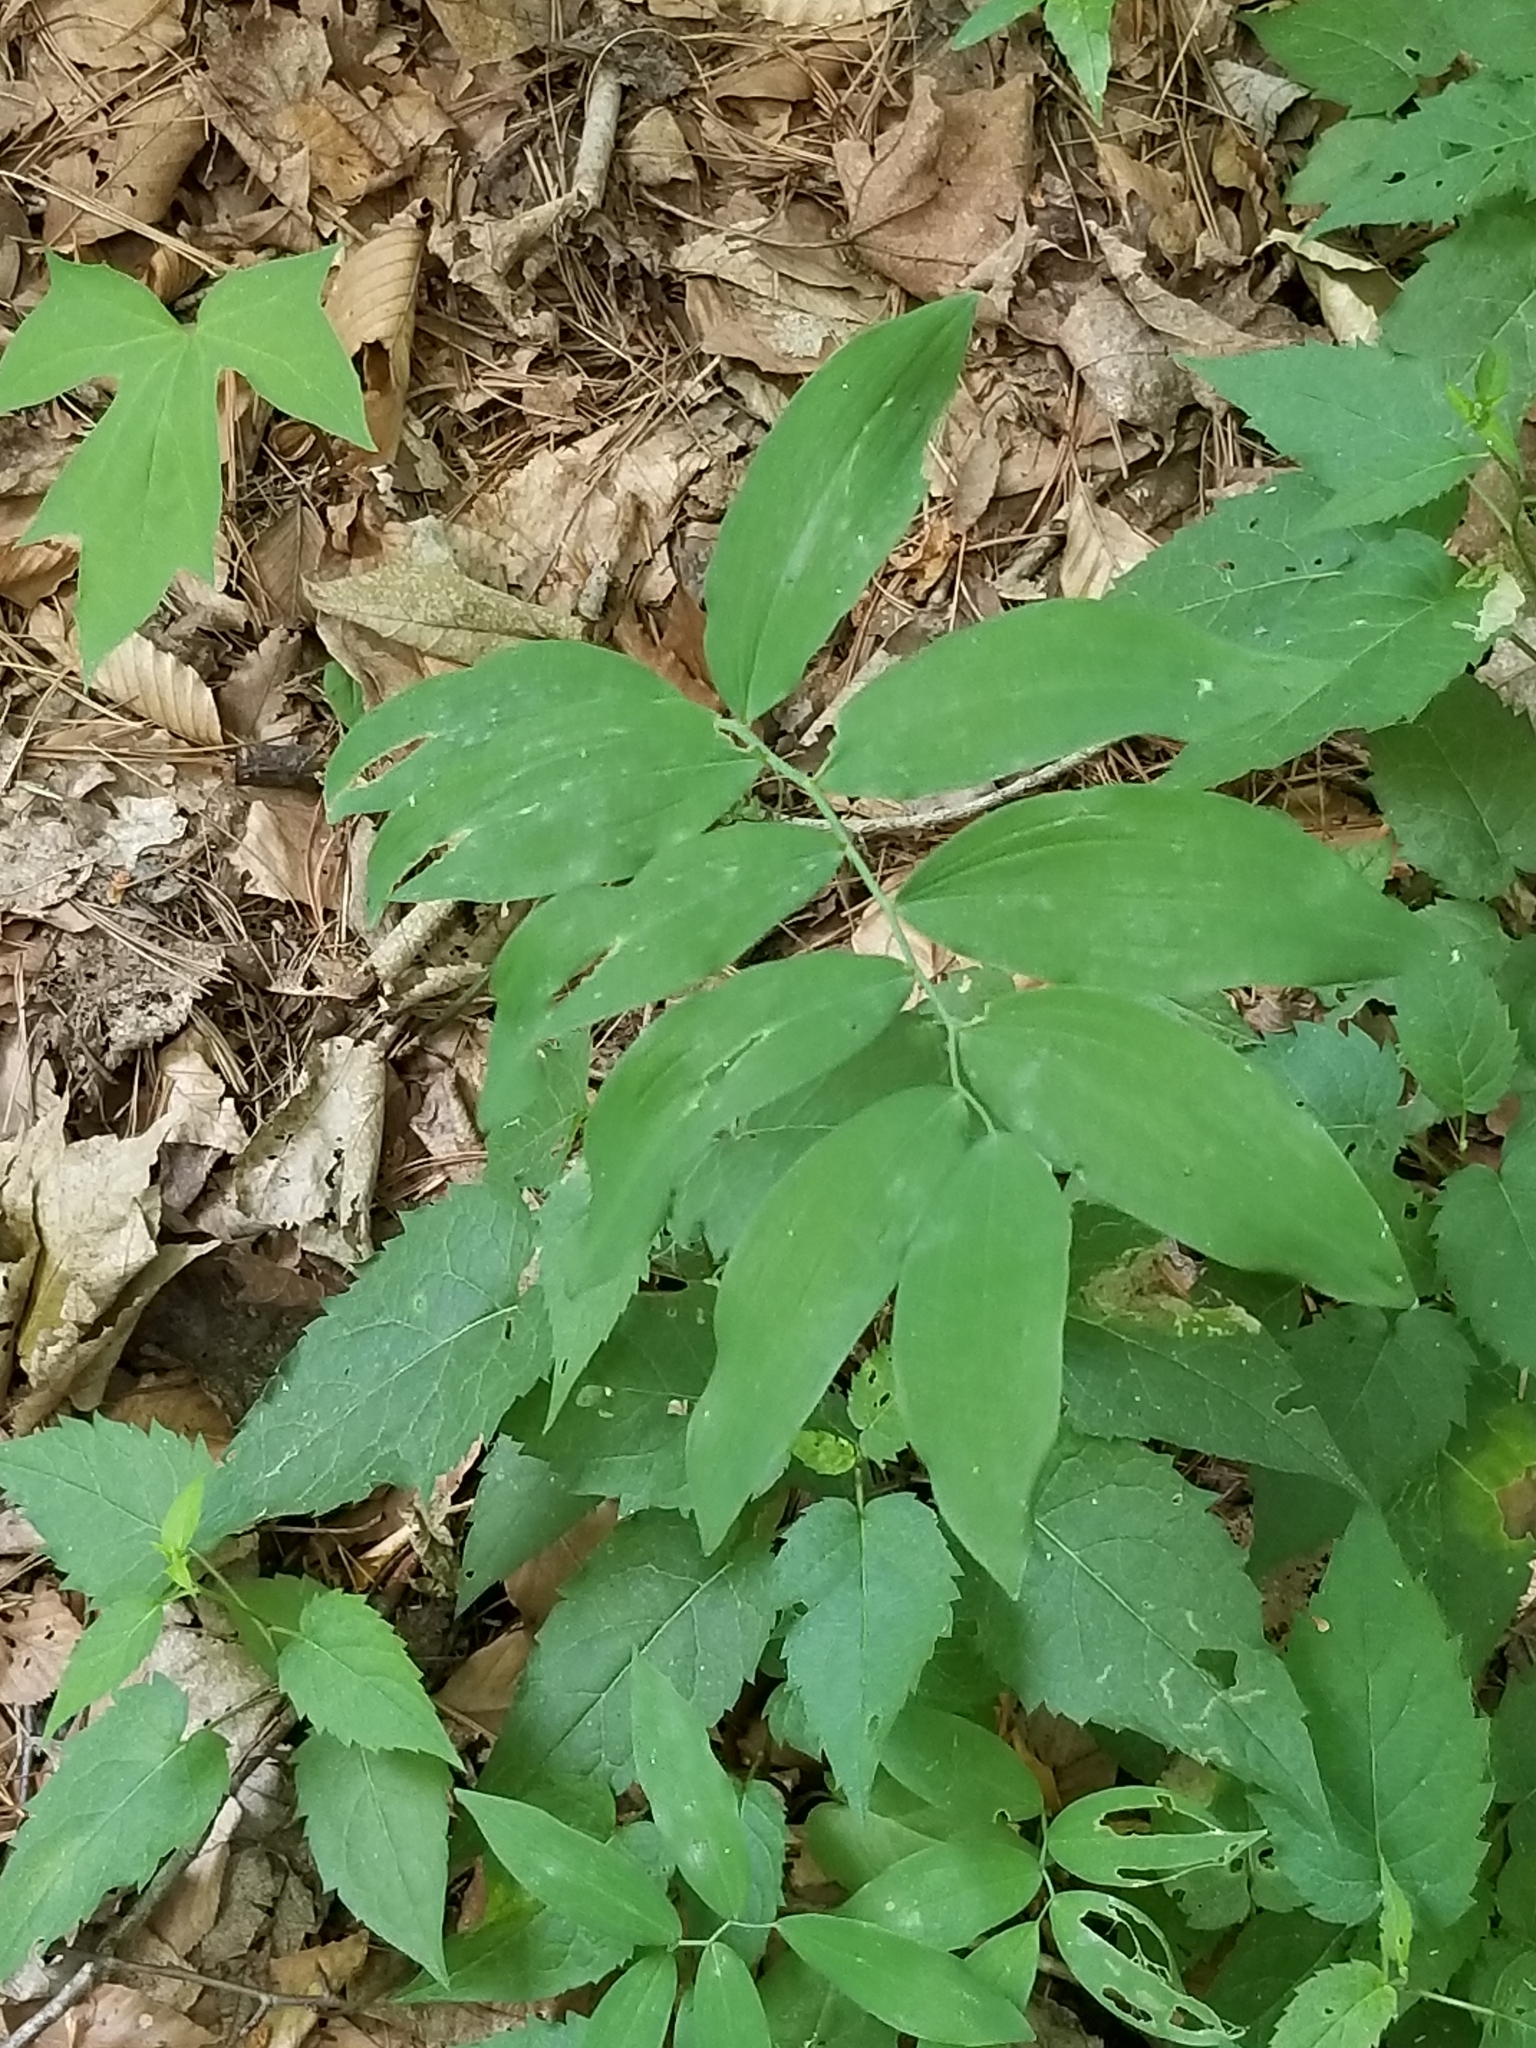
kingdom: Plantae
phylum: Tracheophyta
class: Liliopsida
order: Asparagales
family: Asparagaceae
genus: Polygonatum
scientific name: Polygonatum pubescens
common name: Downy solomon's seal
